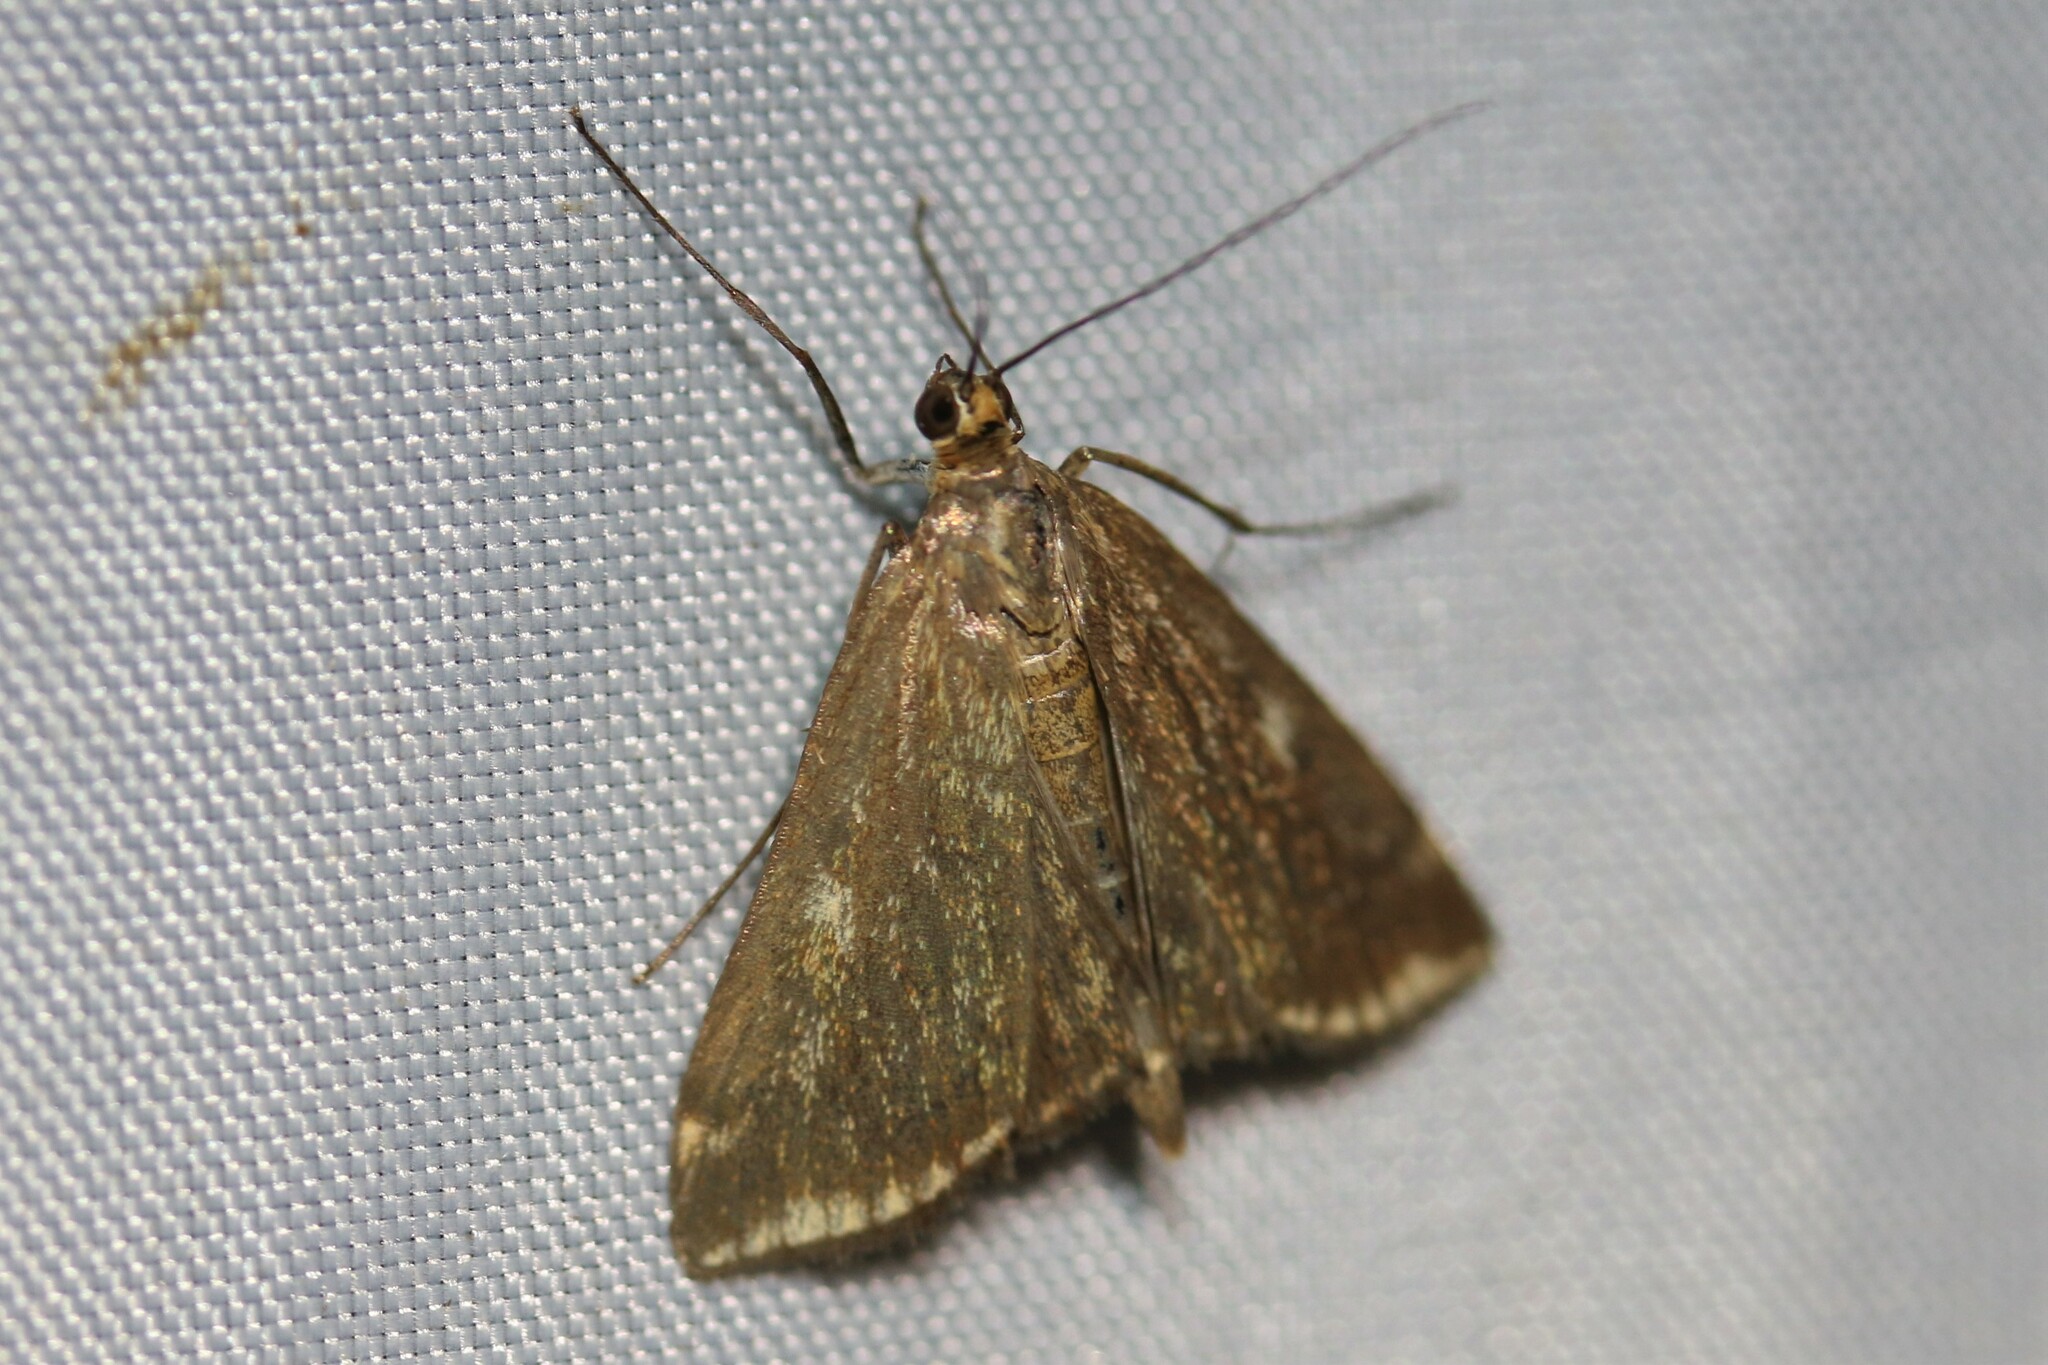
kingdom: Animalia
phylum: Arthropoda
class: Insecta
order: Lepidoptera
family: Crambidae
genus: Loxostege
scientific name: Loxostege sticticalis
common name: Crambid moth
